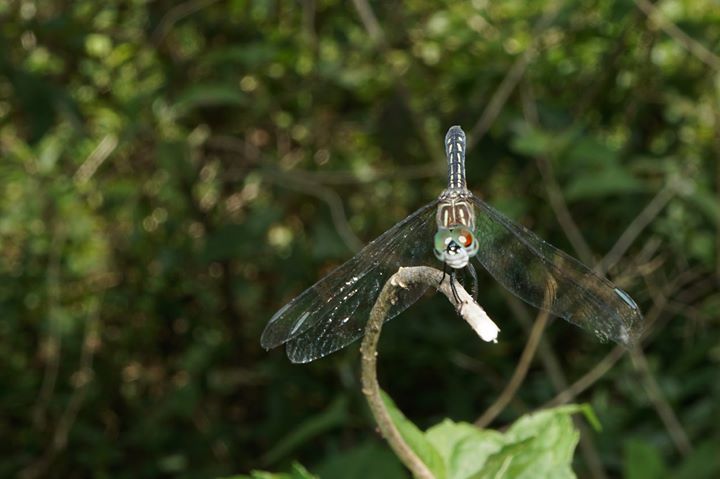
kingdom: Animalia
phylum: Arthropoda
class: Insecta
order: Odonata
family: Libellulidae
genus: Pachydiplax
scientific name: Pachydiplax longipennis
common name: Blue dasher
